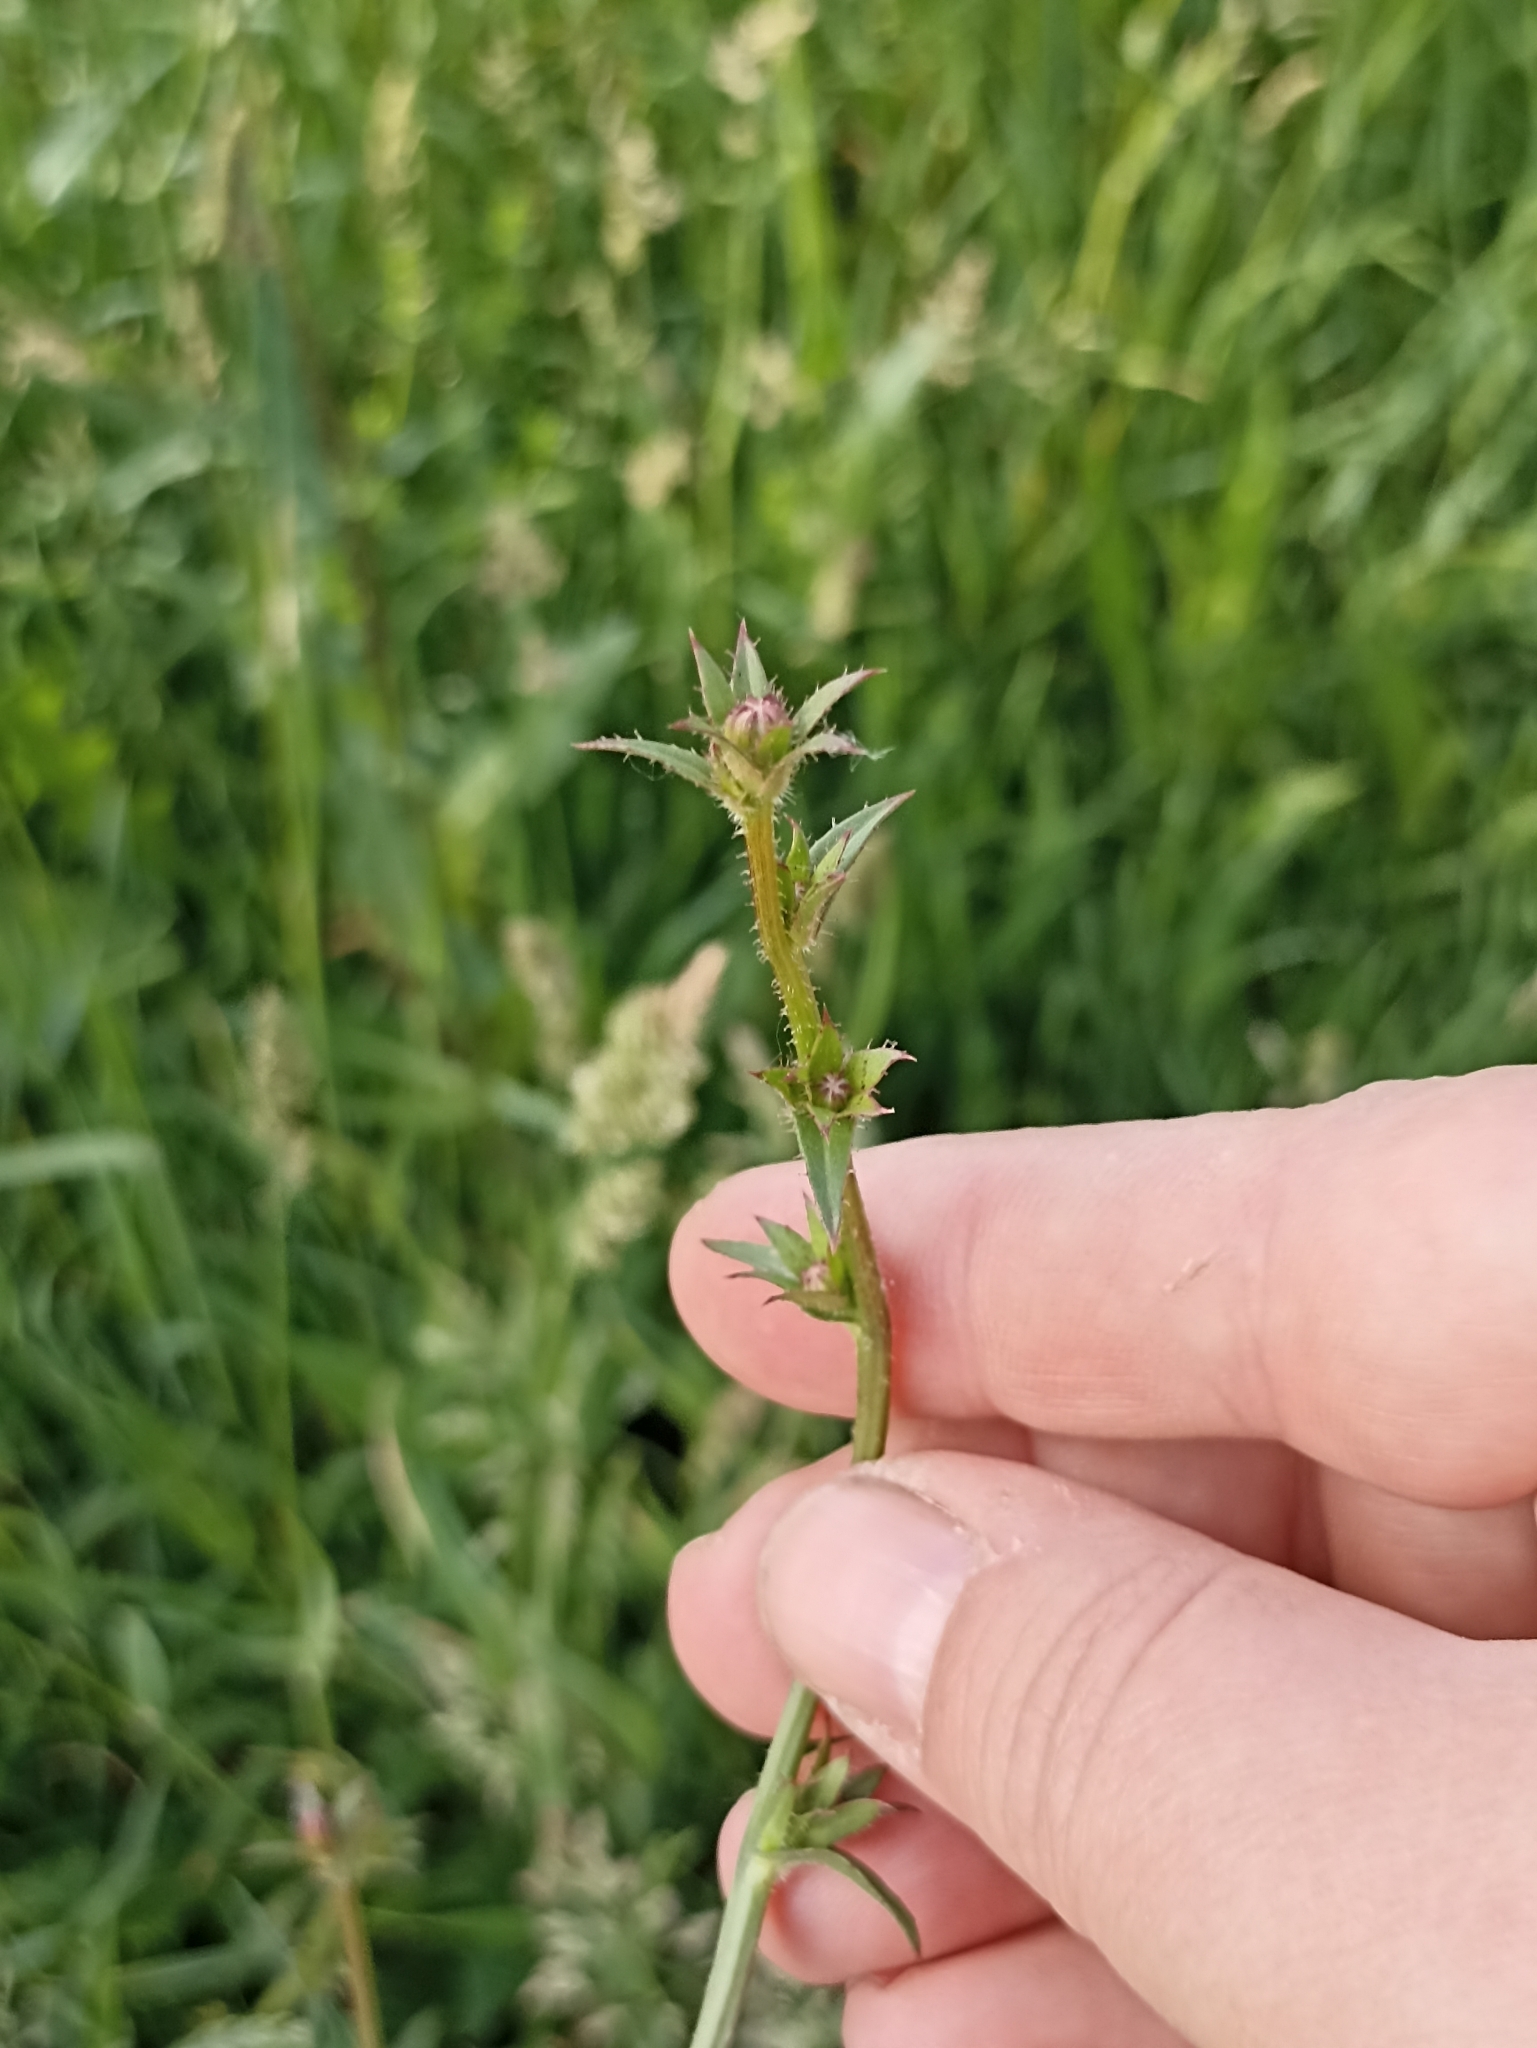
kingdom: Plantae
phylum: Tracheophyta
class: Magnoliopsida
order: Asterales
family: Asteraceae
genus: Cichorium
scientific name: Cichorium intybus
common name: Chicory
